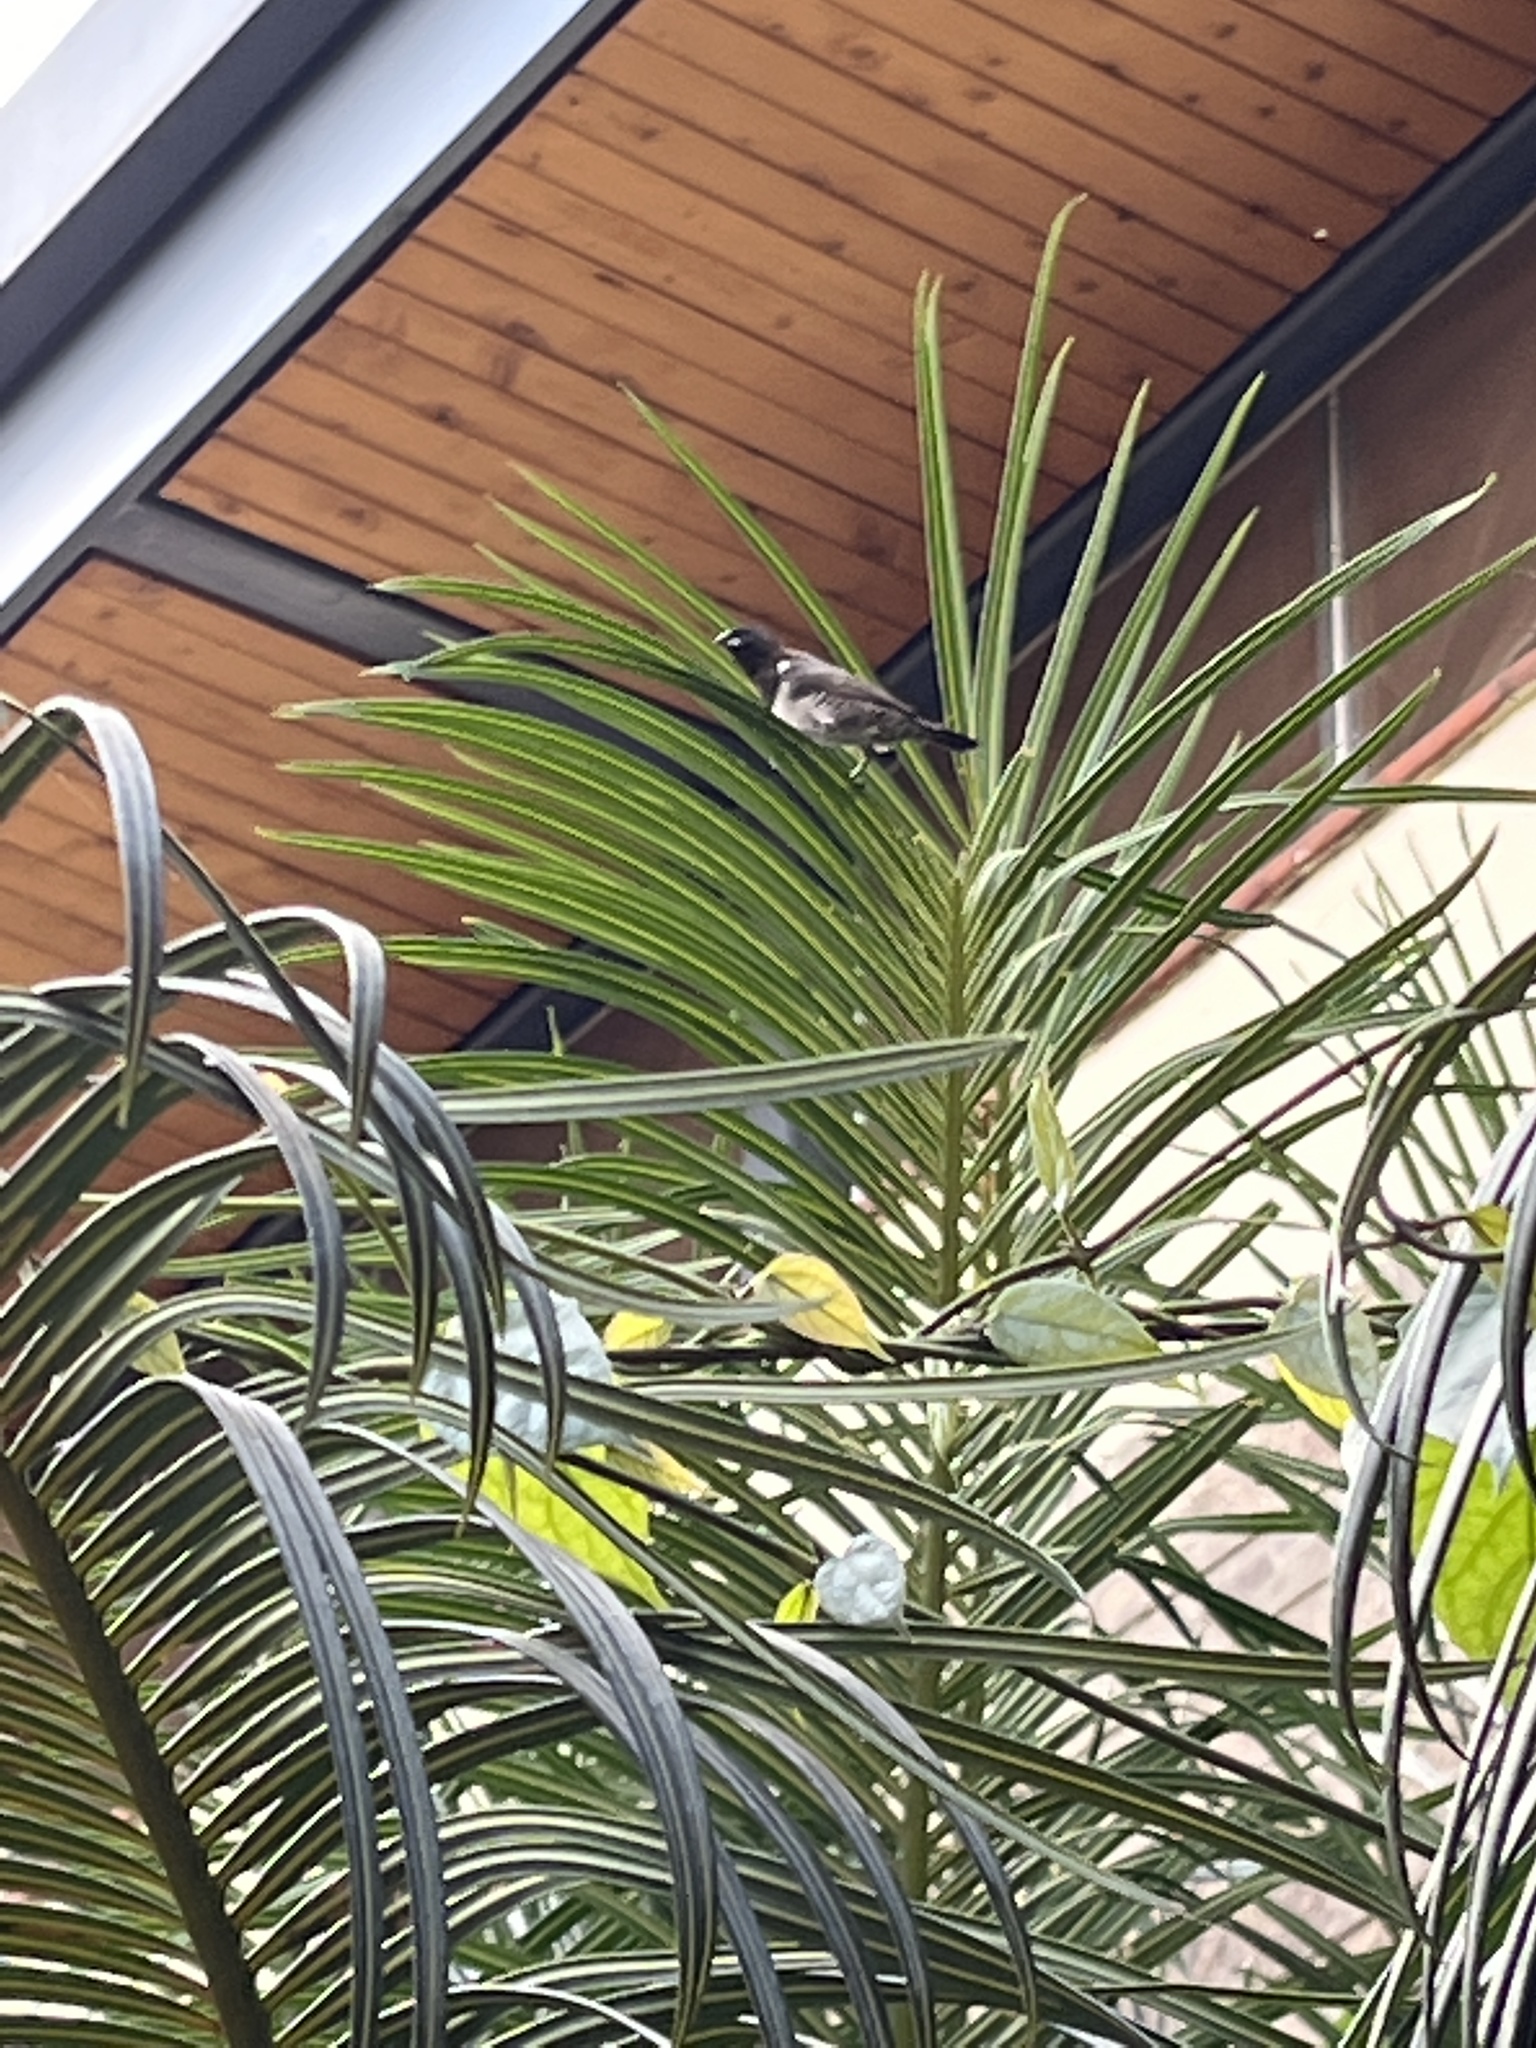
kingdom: Animalia
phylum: Chordata
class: Aves
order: Passeriformes
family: Estrildidae
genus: Lonchura
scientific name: Lonchura cucullata
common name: Bronze mannikin
